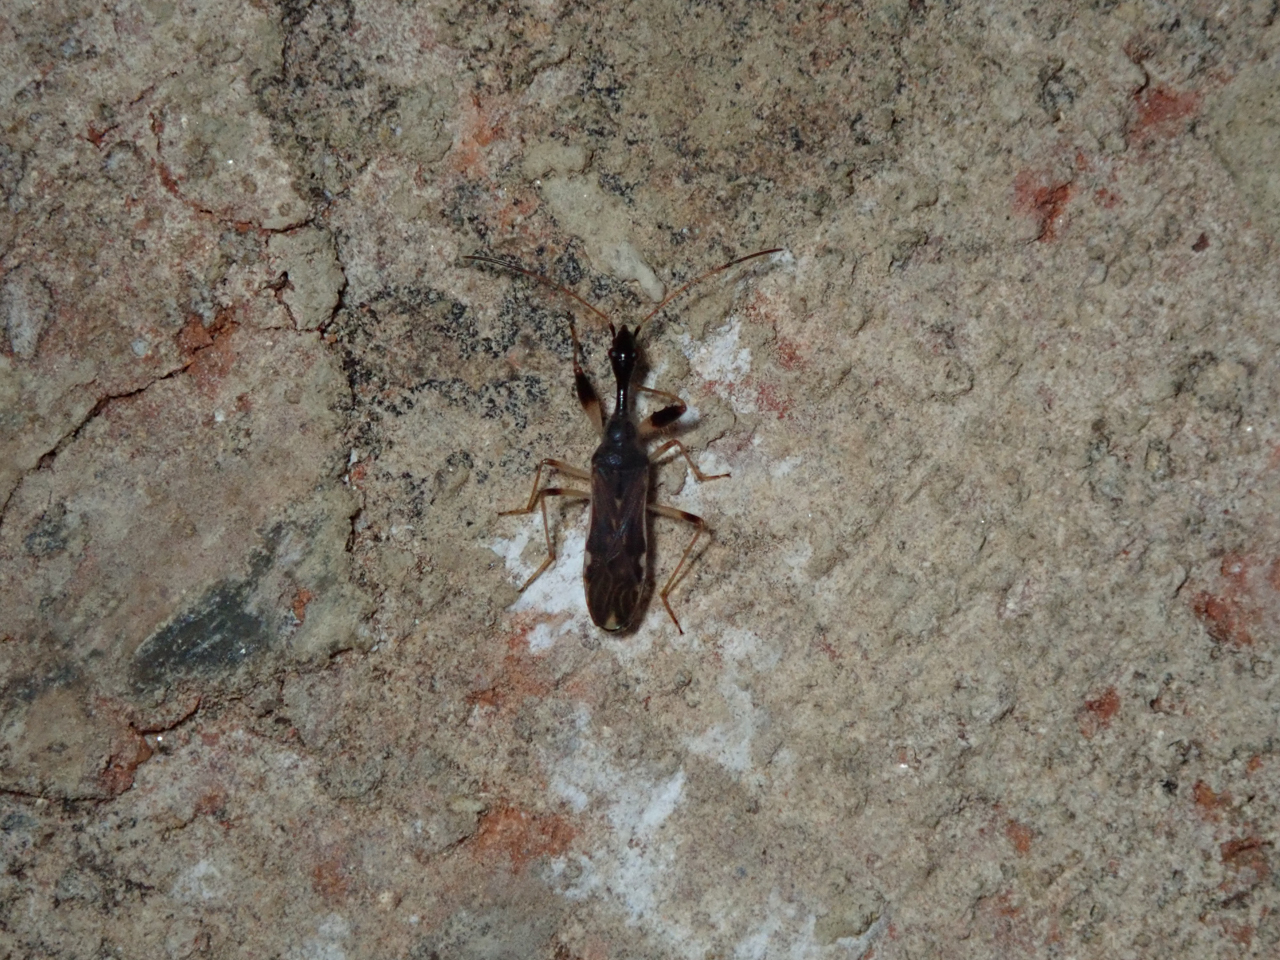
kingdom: Animalia
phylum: Arthropoda
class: Insecta
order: Hemiptera
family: Rhyparochromidae
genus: Myodocha
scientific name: Myodocha serripes
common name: Long-necked seed bug
